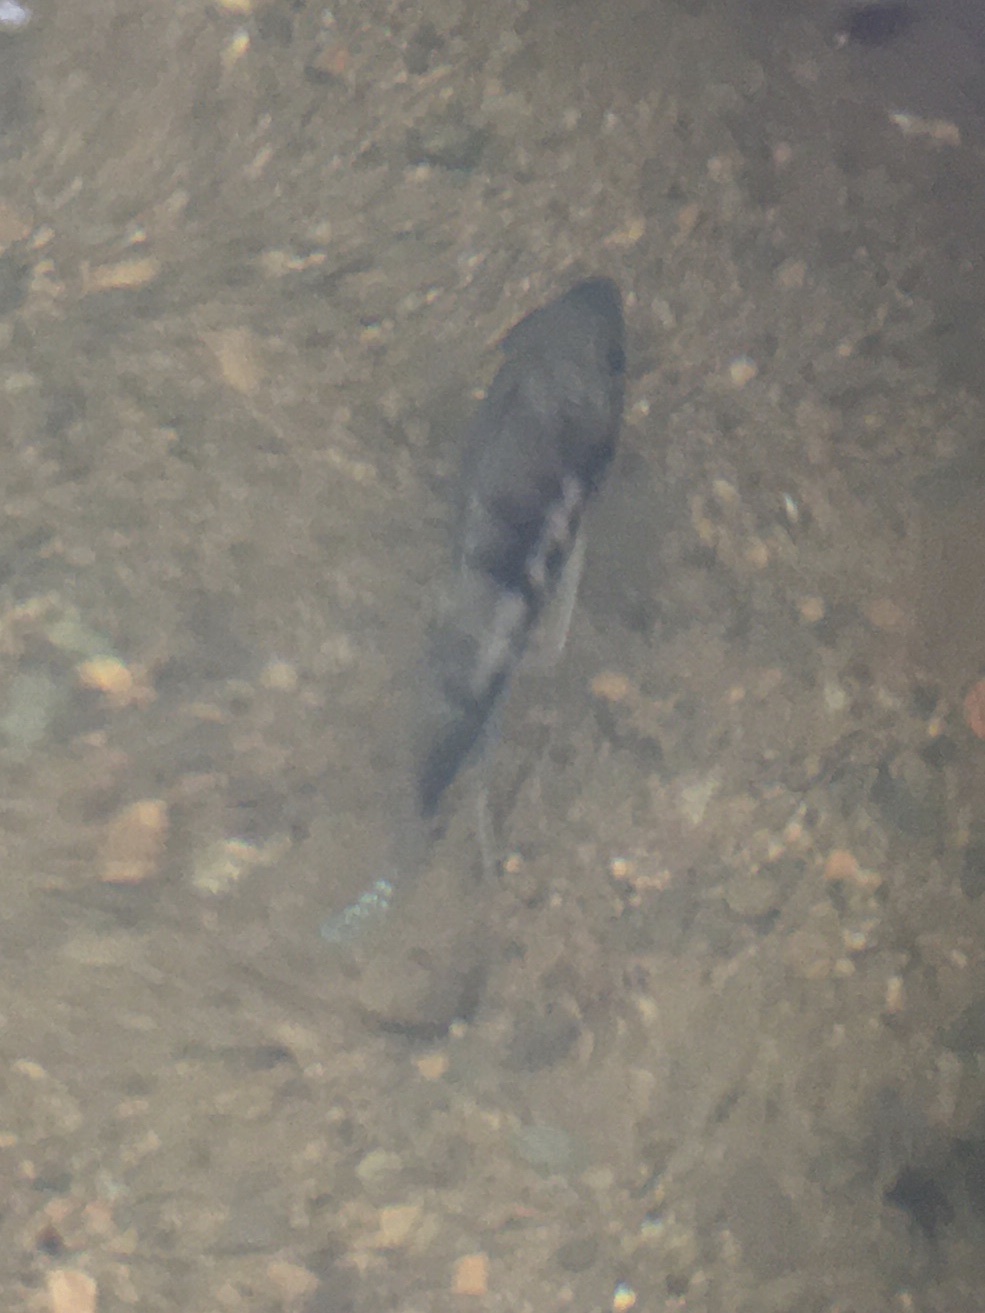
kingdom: Animalia
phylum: Chordata
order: Perciformes
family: Cichlidae
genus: Cryptoheros
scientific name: Cryptoheros panamensis
